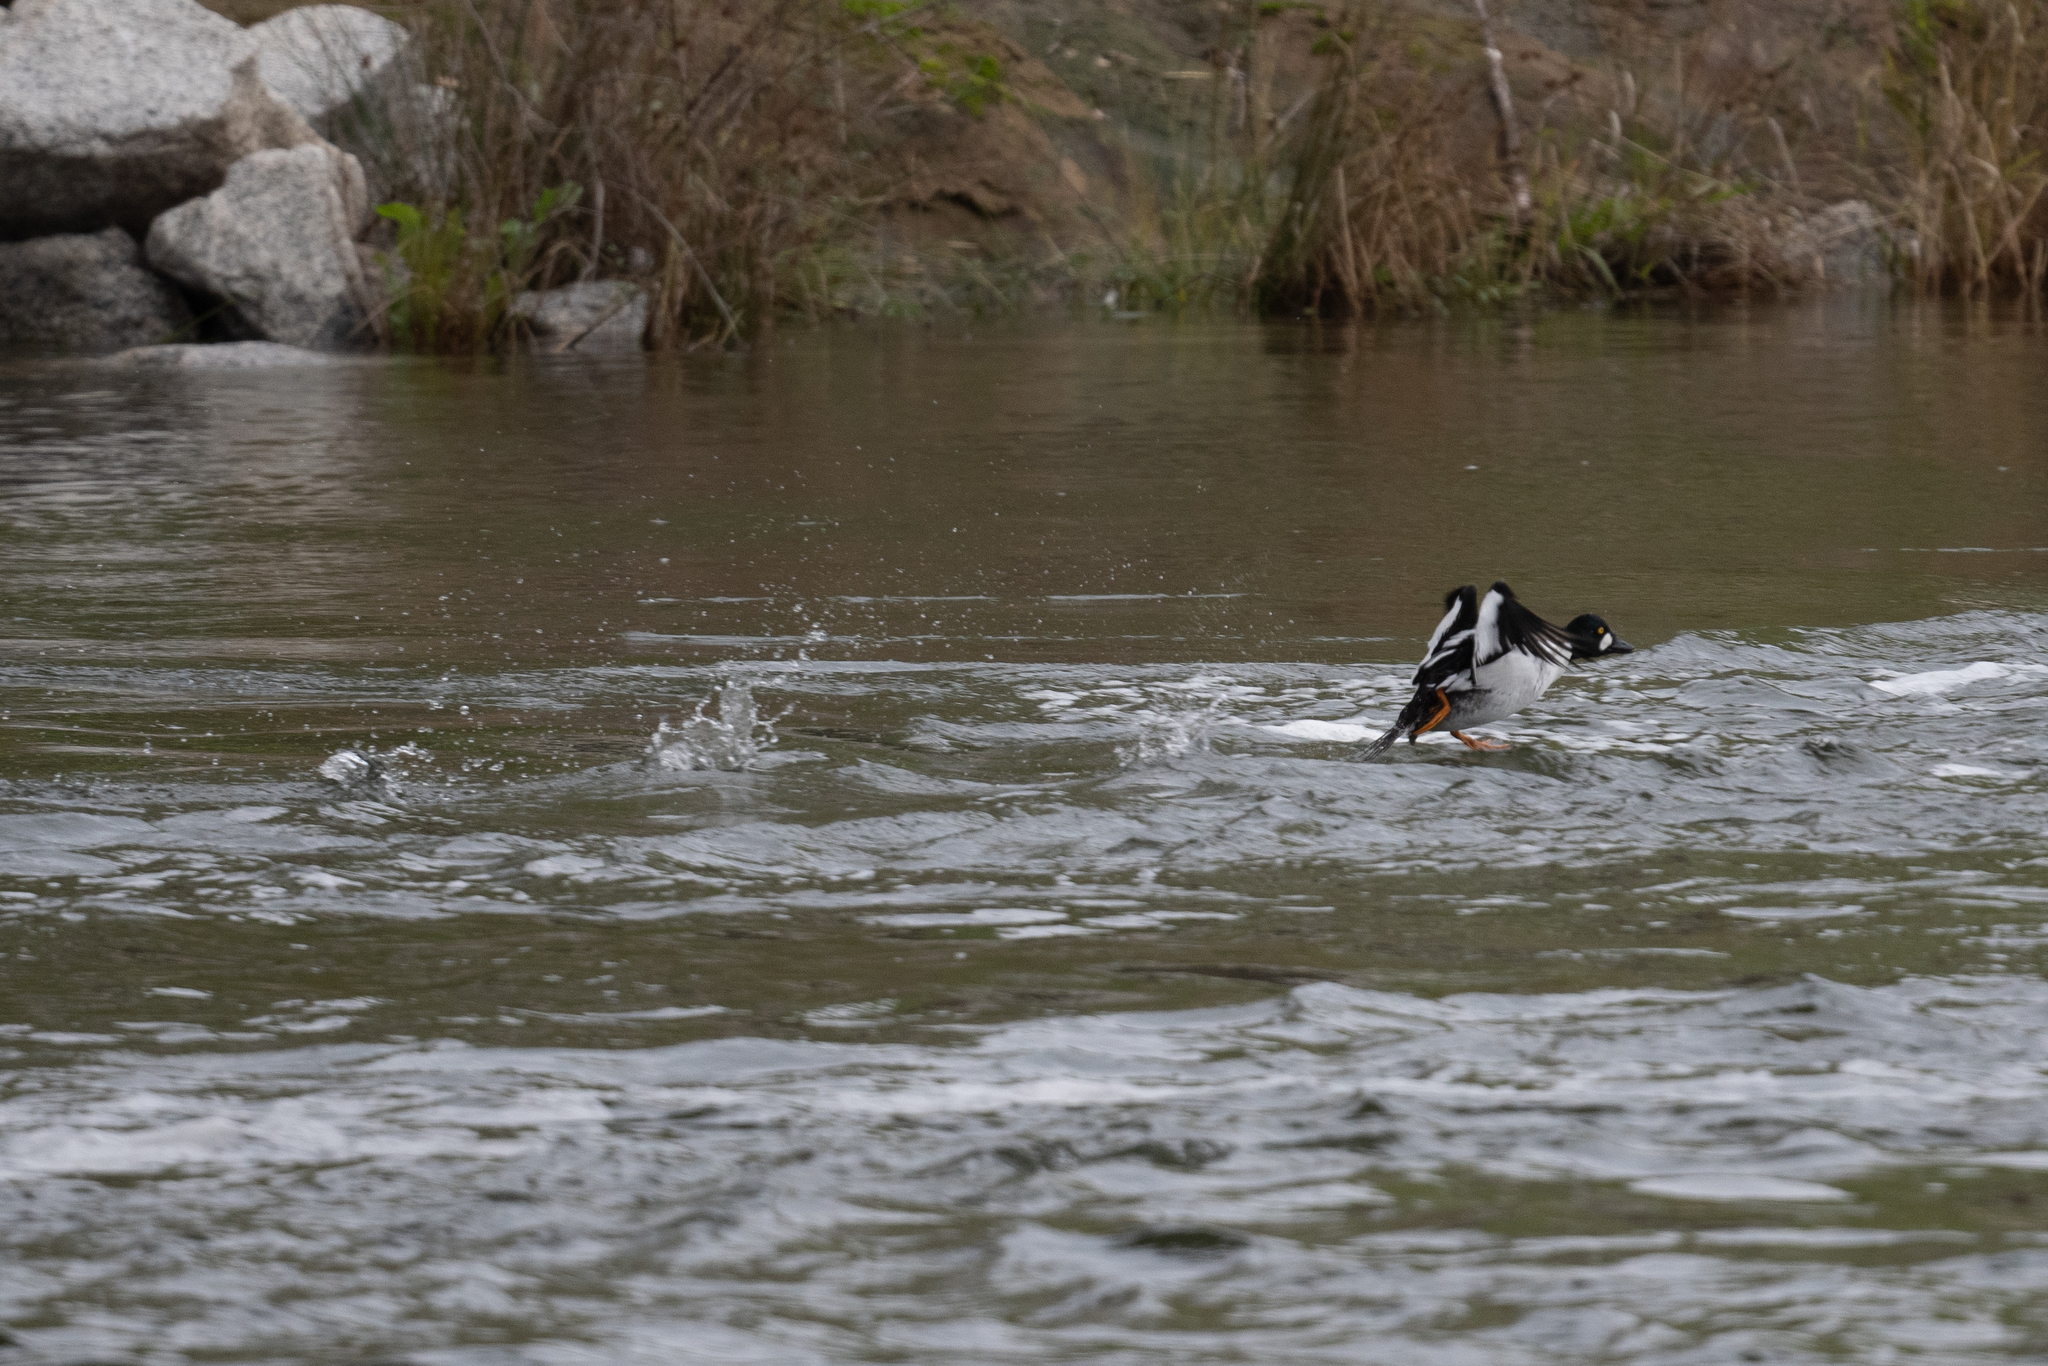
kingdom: Animalia
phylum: Chordata
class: Aves
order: Anseriformes
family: Anatidae
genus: Bucephala
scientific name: Bucephala clangula
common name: Common goldeneye
